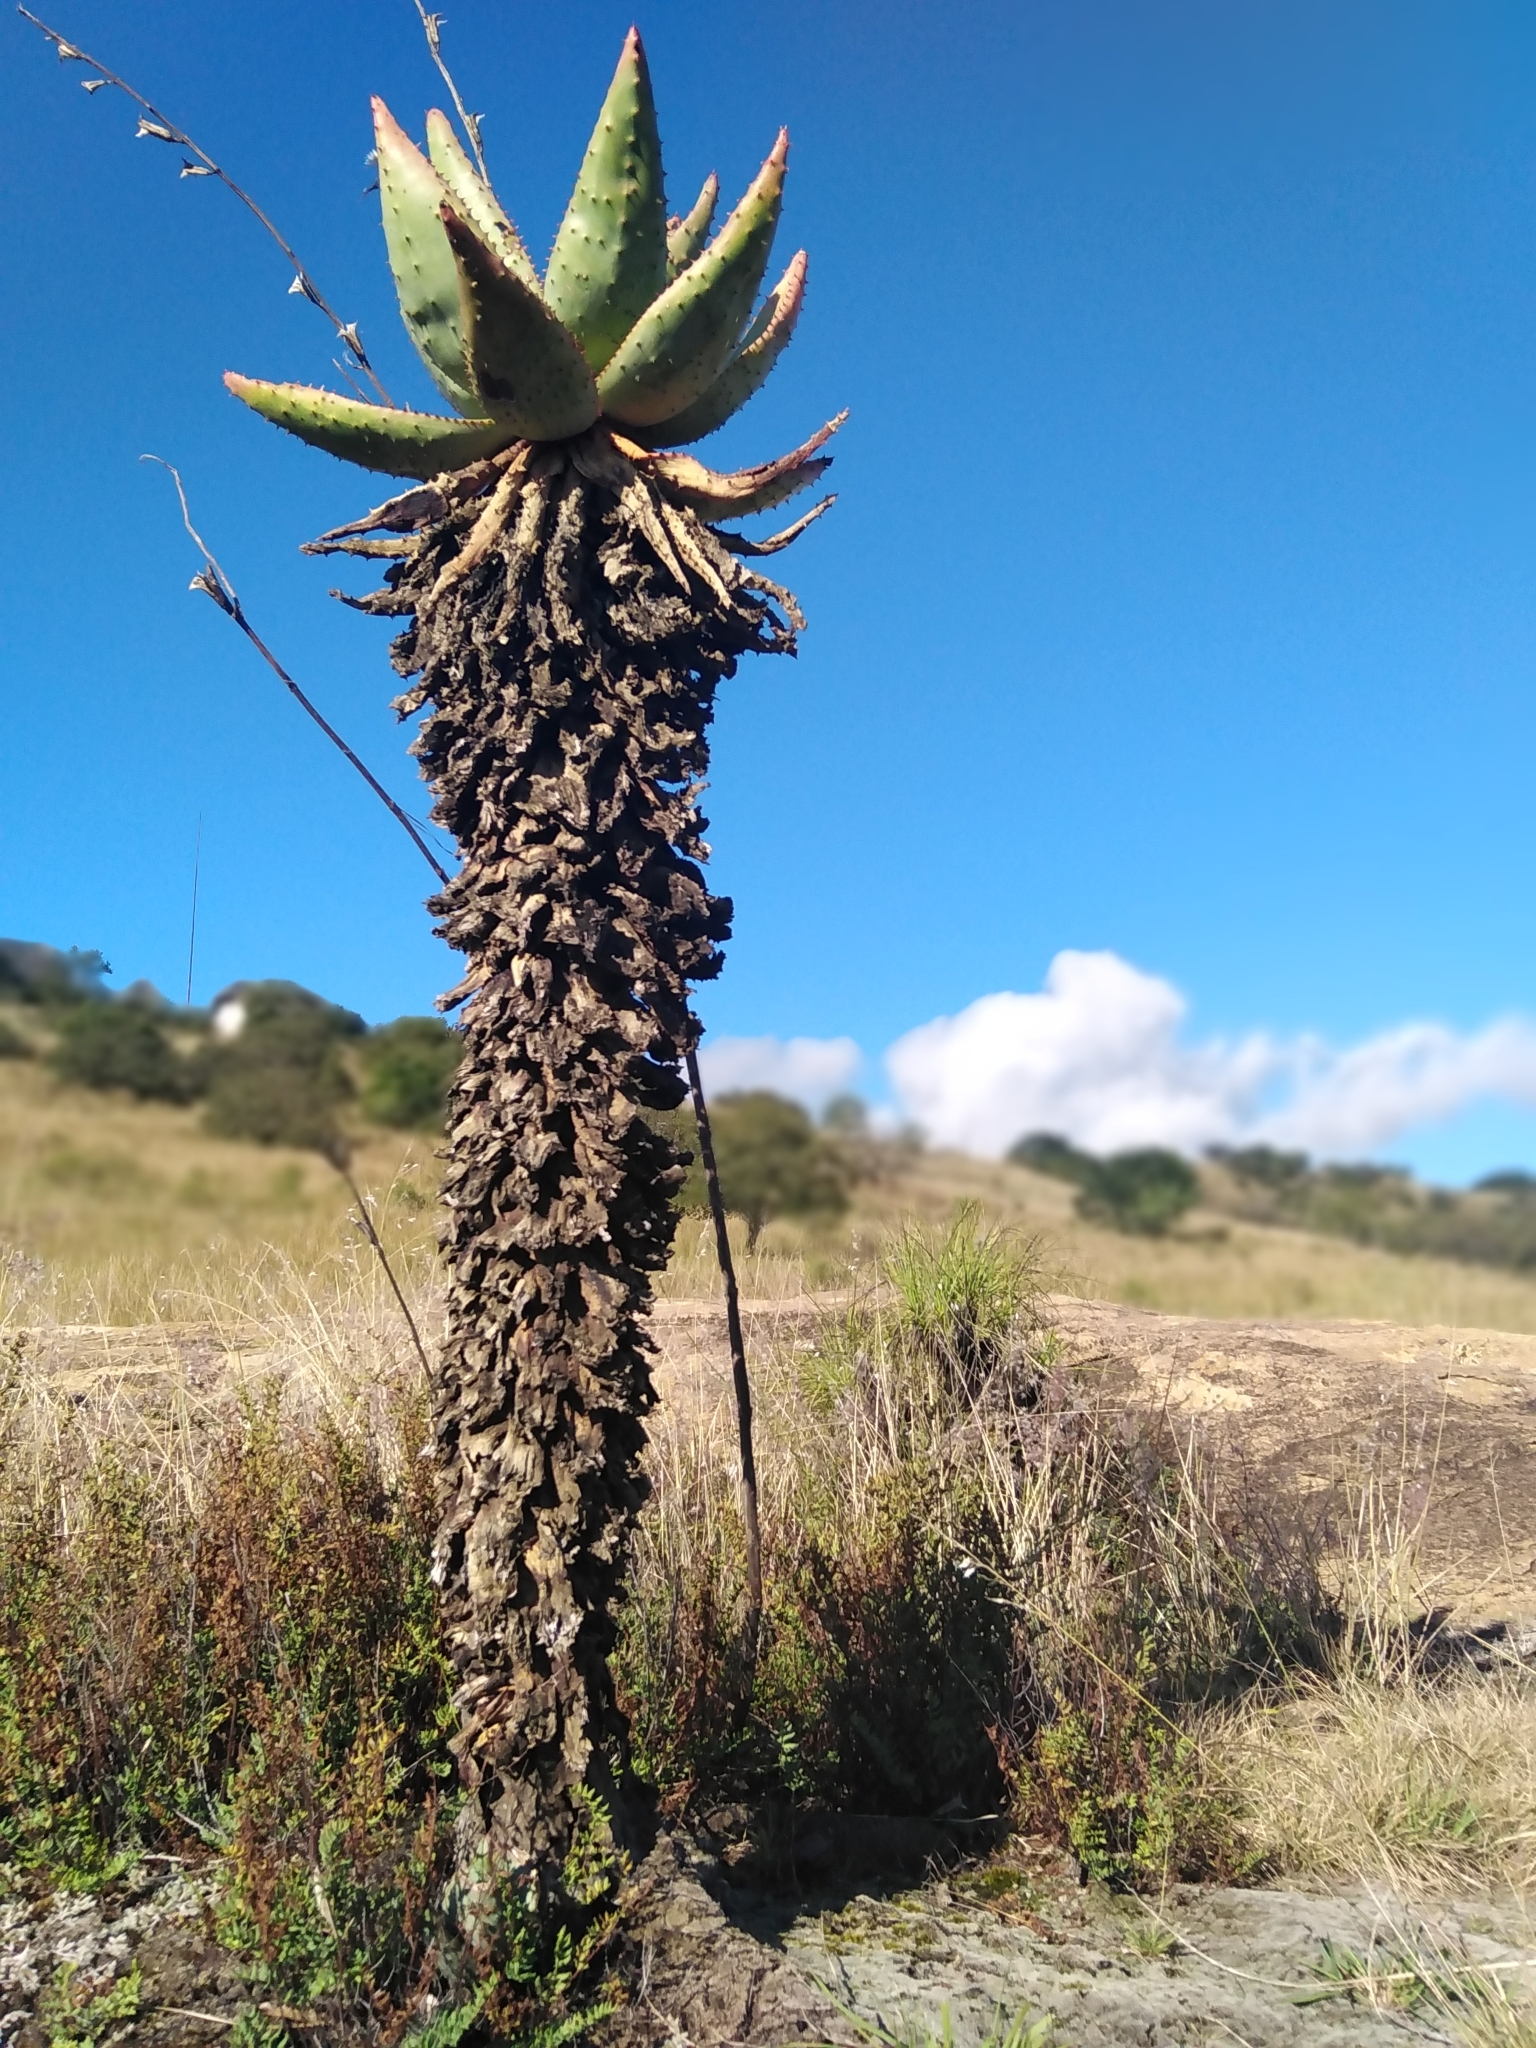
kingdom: Plantae
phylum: Tracheophyta
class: Liliopsida
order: Asparagales
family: Asphodelaceae
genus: Aloe
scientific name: Aloe marlothii
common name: Flat-flowered aloe
